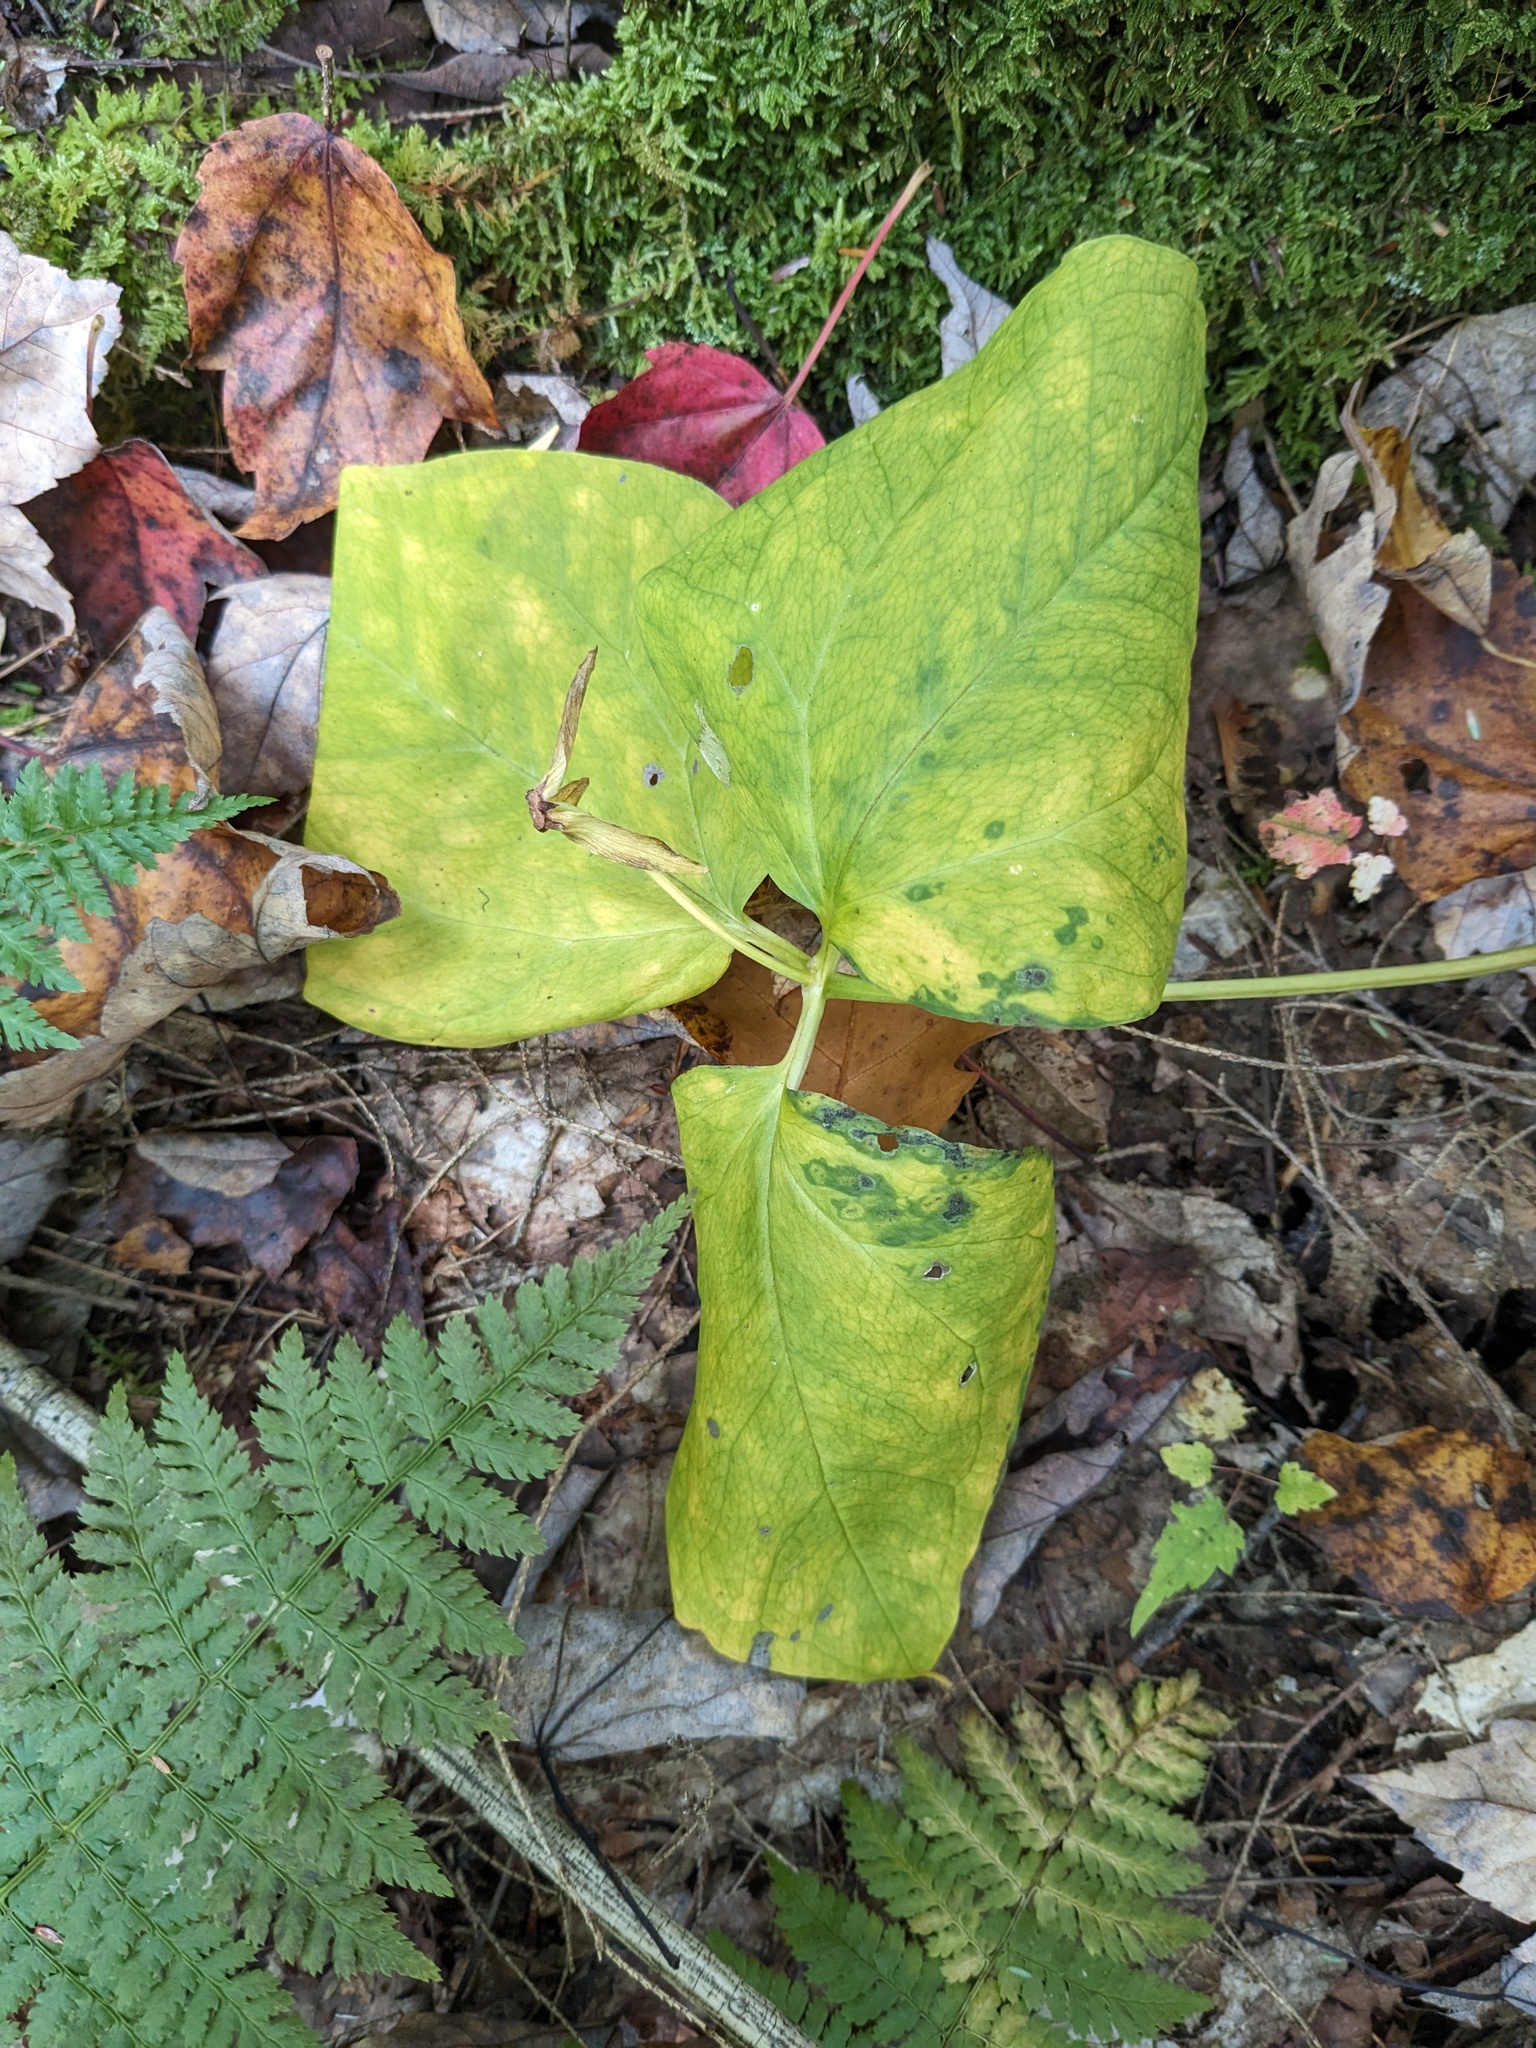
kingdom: Plantae
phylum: Tracheophyta
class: Liliopsida
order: Liliales
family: Melanthiaceae
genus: Trillium
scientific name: Trillium undulatum
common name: Paint trillium
